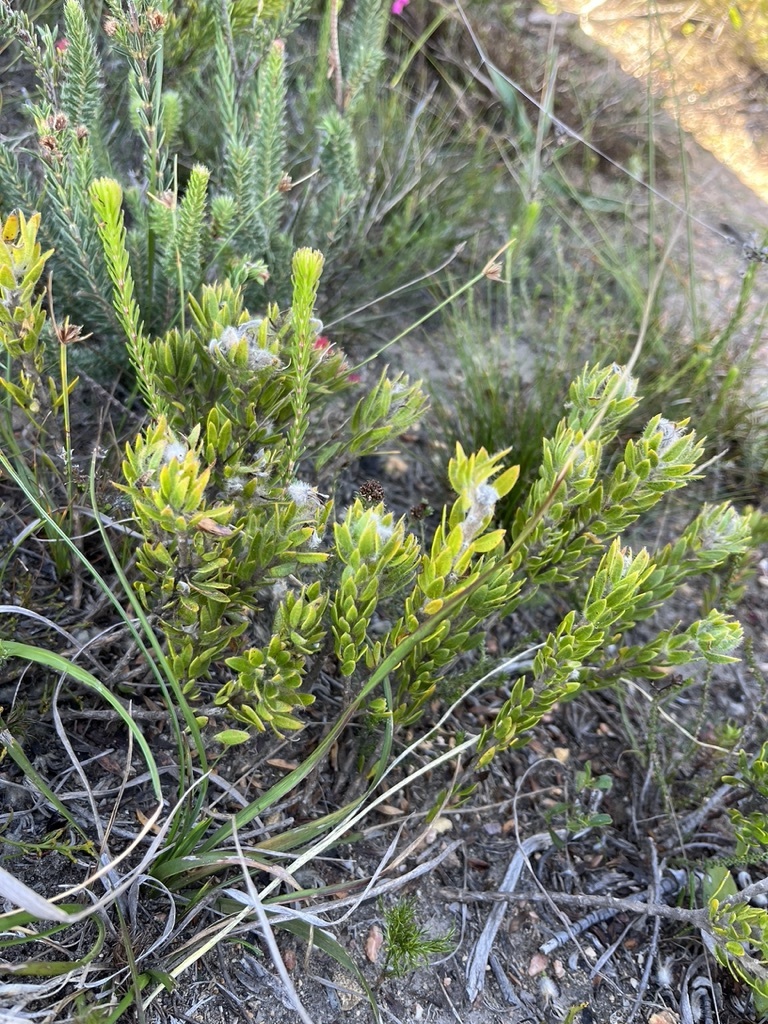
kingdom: Plantae
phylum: Tracheophyta
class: Magnoliopsida
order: Fabales
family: Fabaceae
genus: Aspalathus
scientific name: Aspalathus aspalathoides
